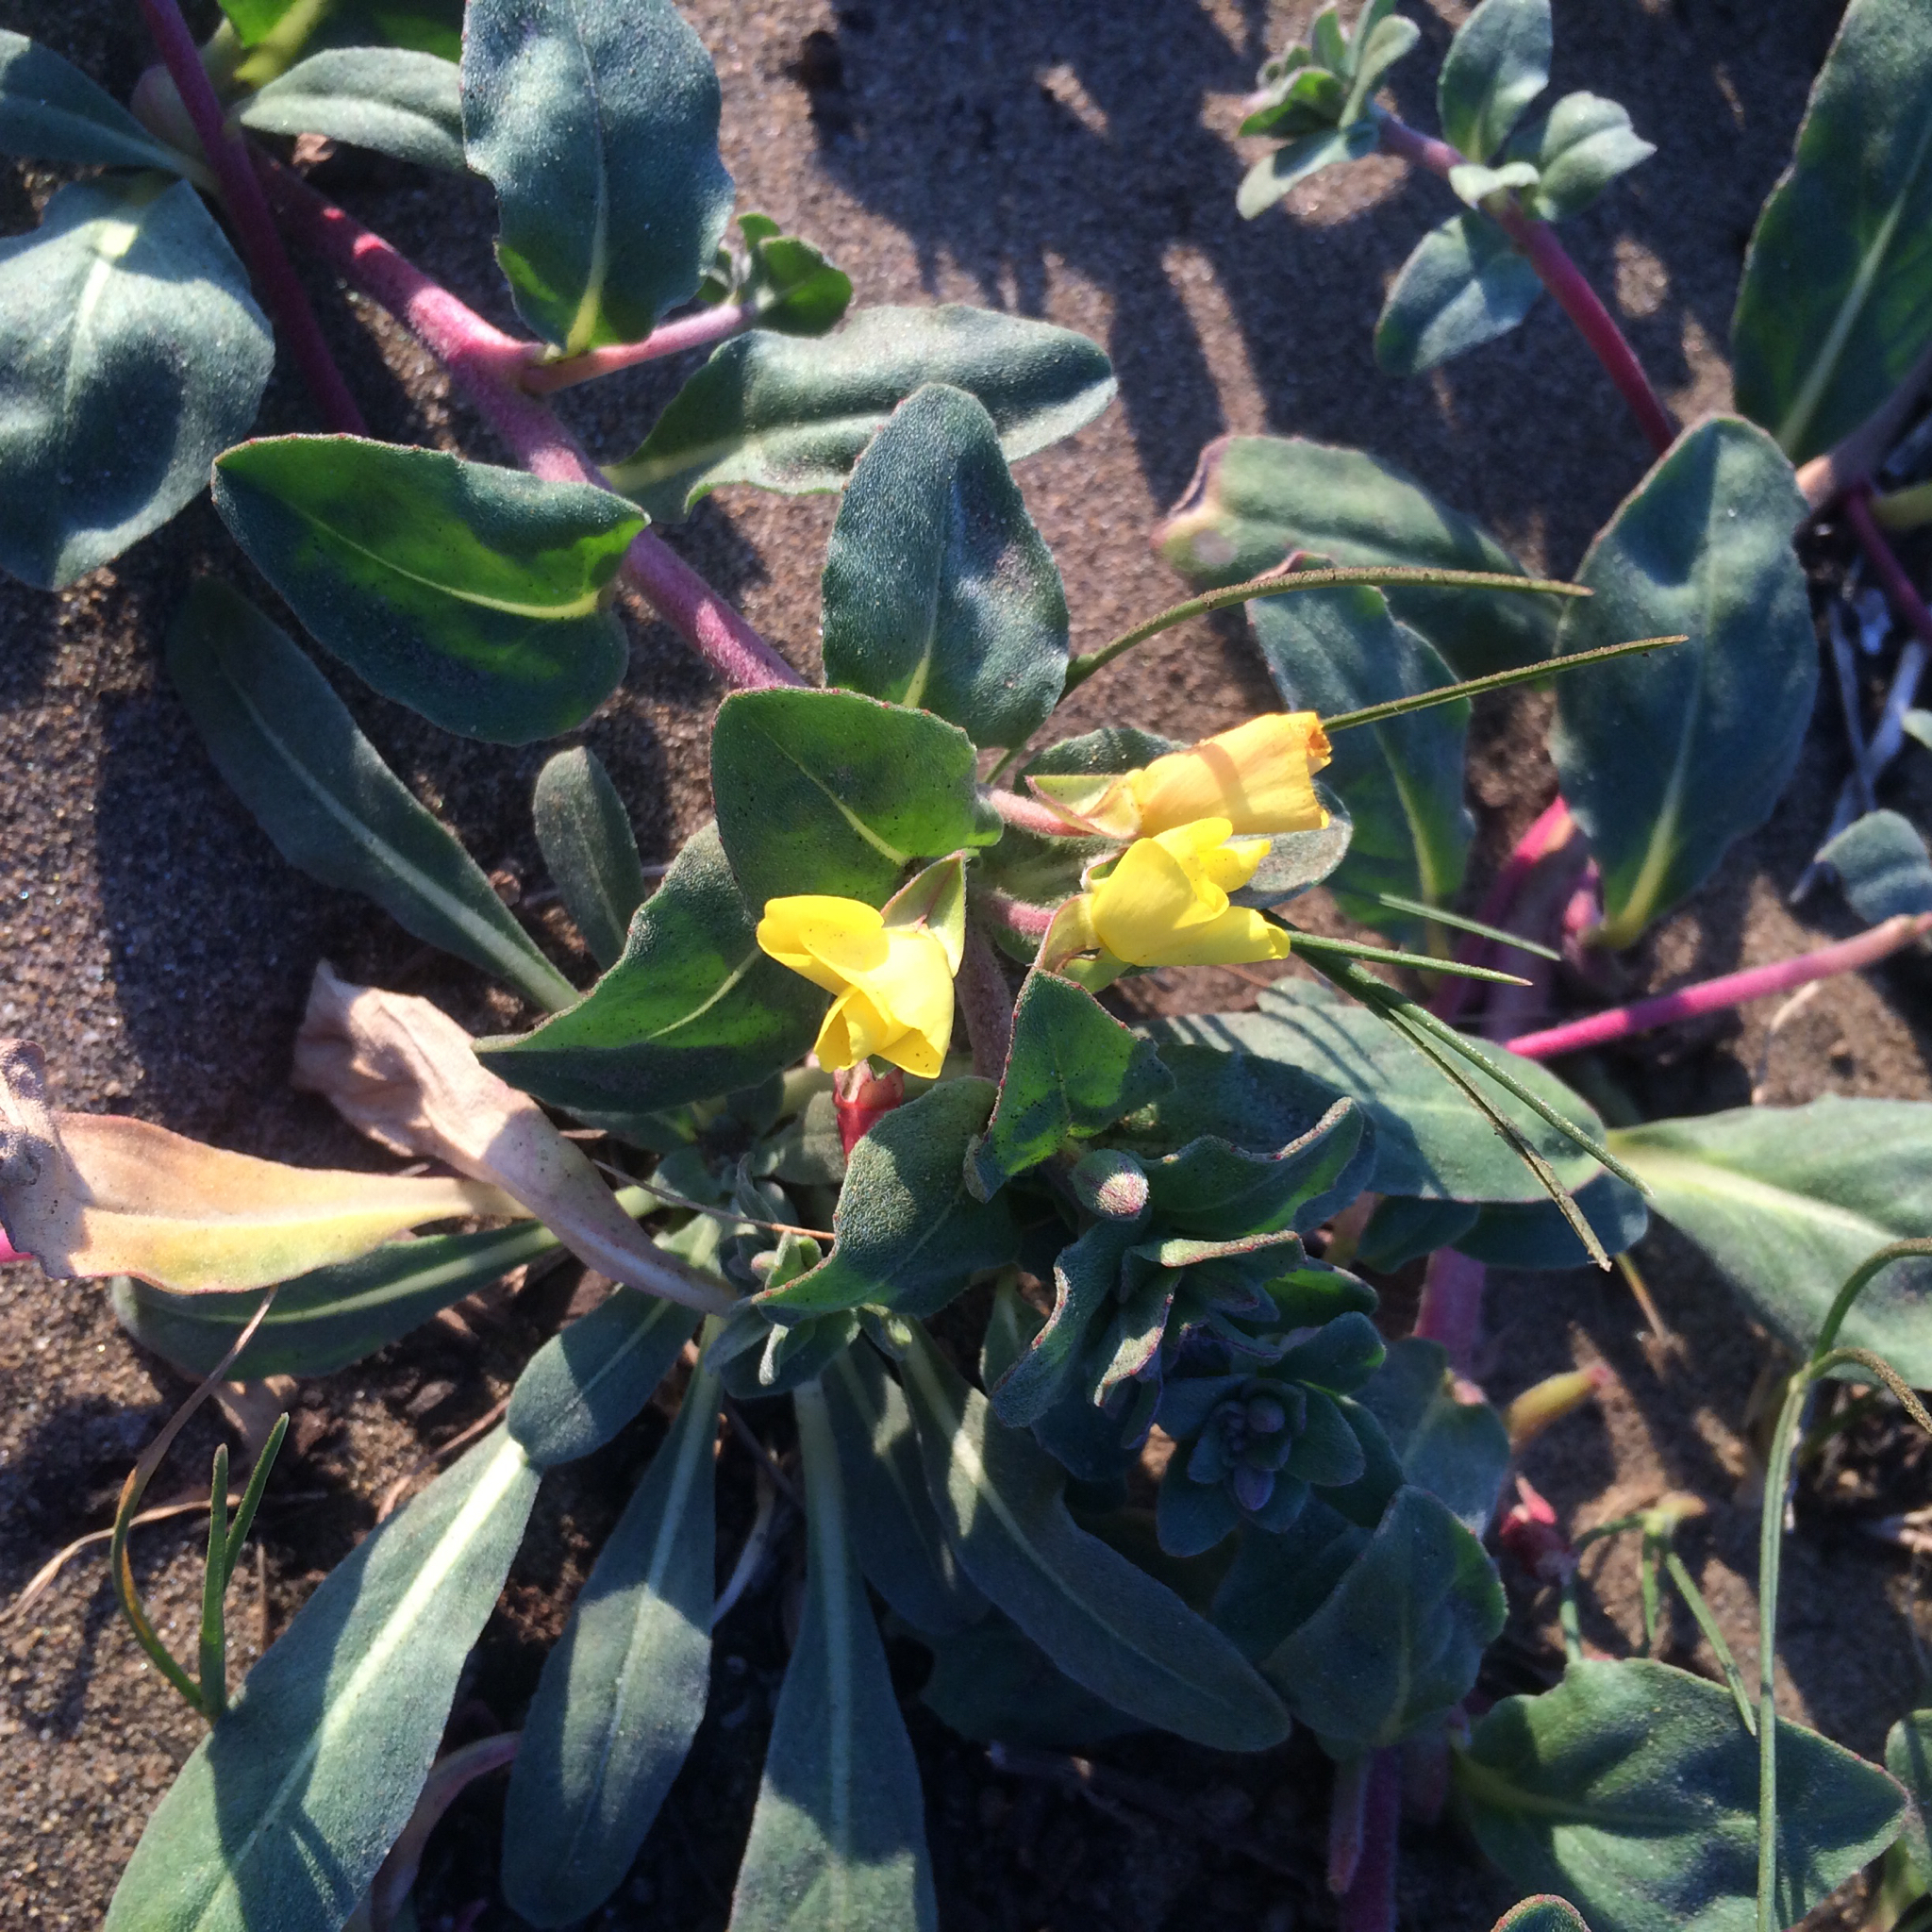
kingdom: Plantae
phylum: Tracheophyta
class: Magnoliopsida
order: Myrtales
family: Onagraceae
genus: Camissoniopsis
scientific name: Camissoniopsis cheiranthifolia
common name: Beach suncup
